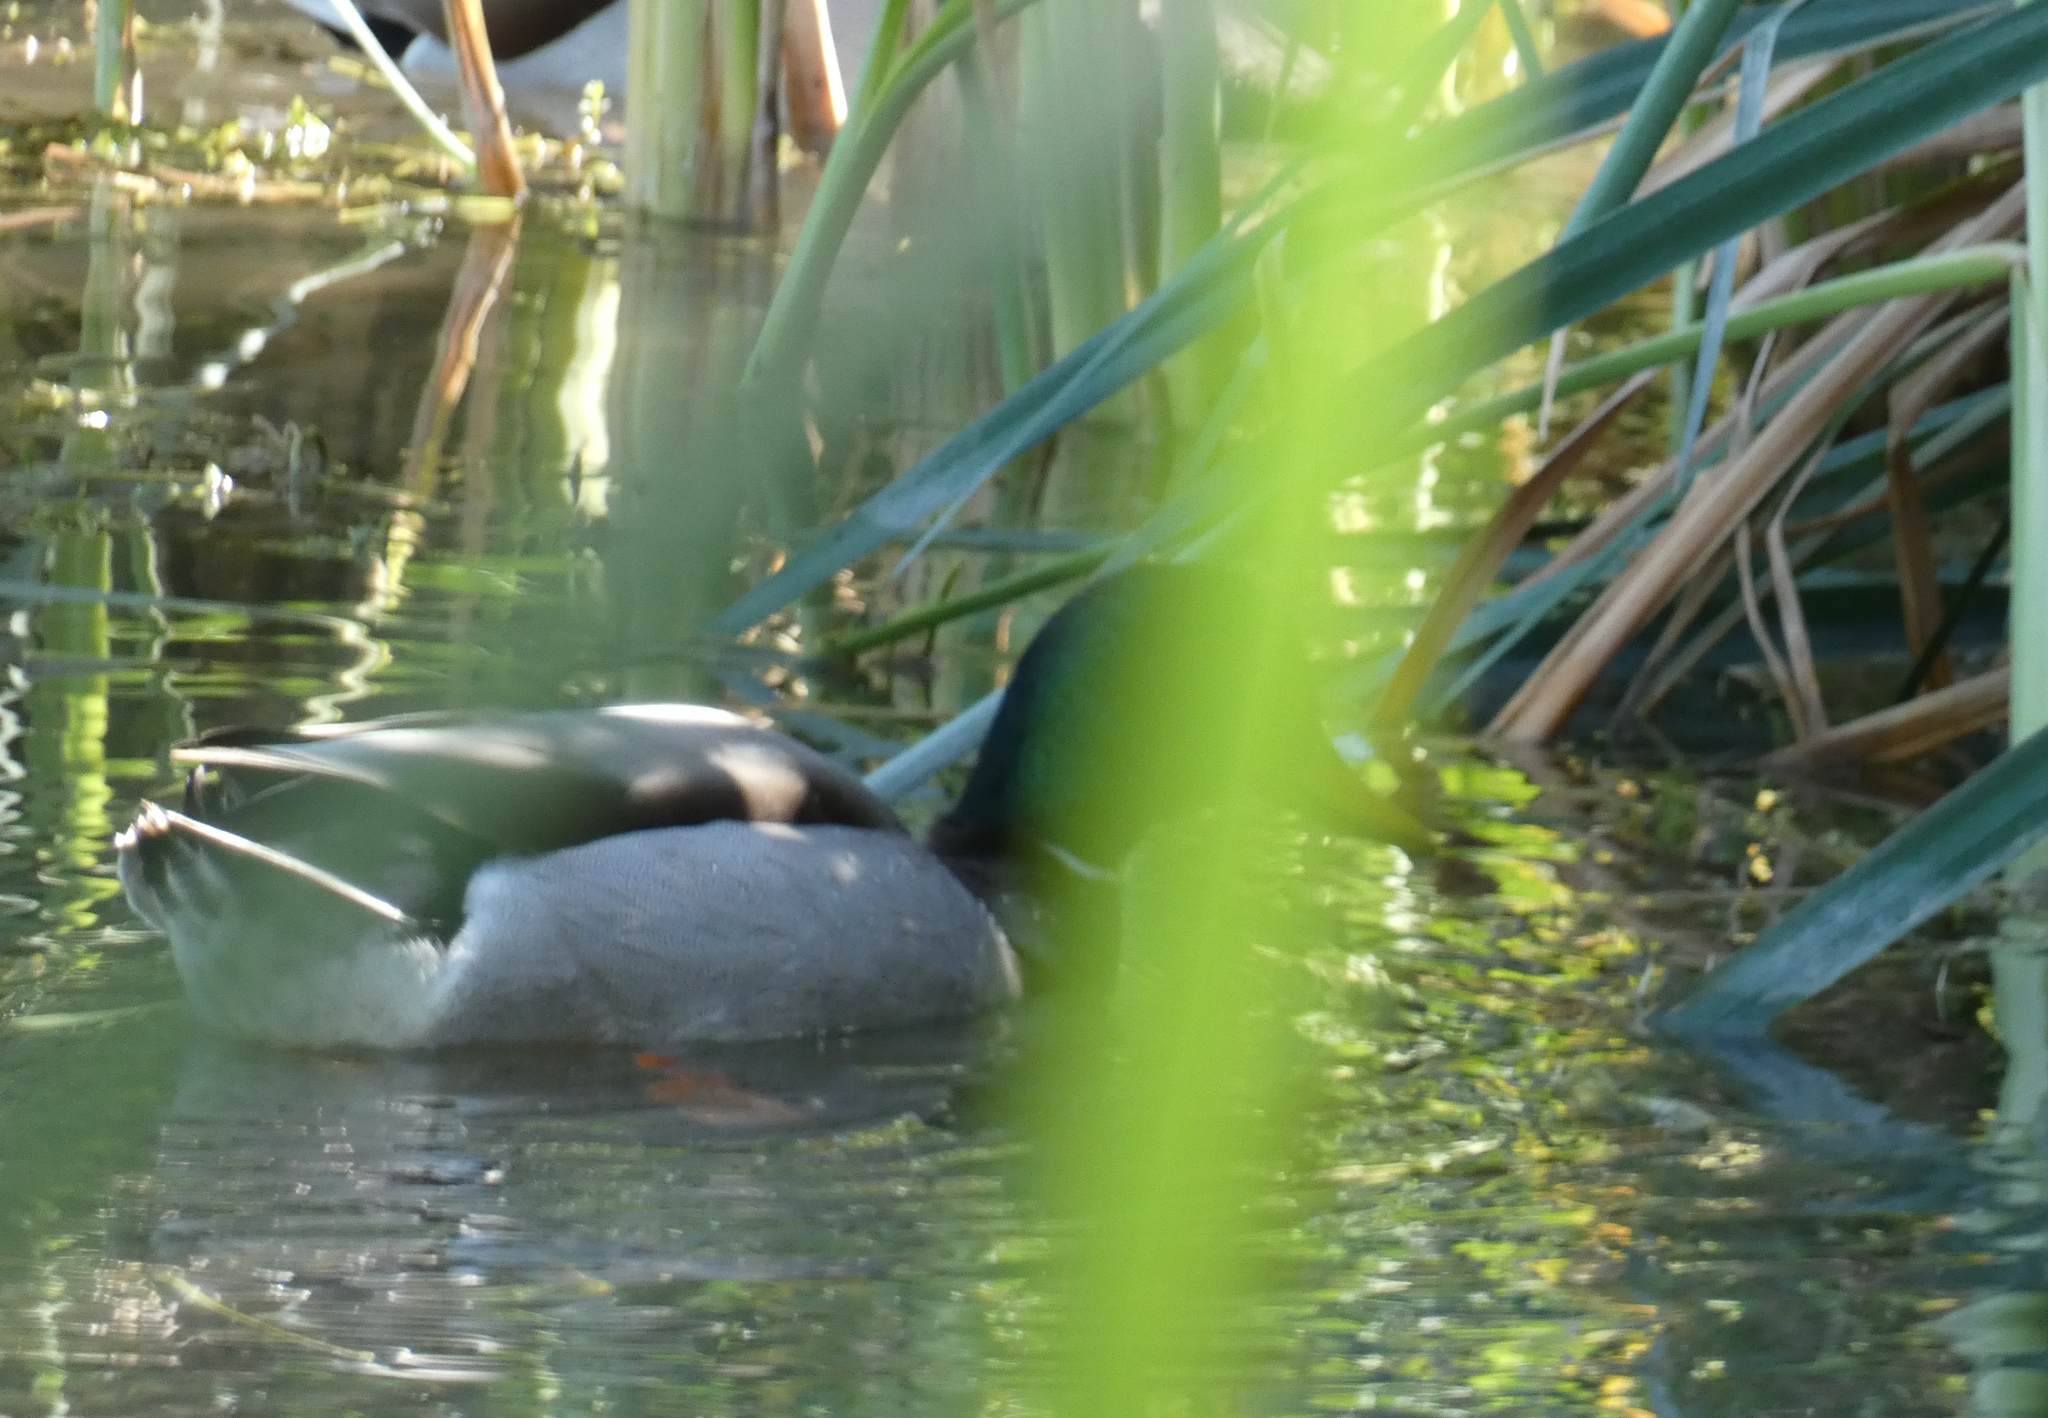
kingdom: Animalia
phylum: Chordata
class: Aves
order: Anseriformes
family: Anatidae
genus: Anas
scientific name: Anas platyrhynchos
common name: Mallard
